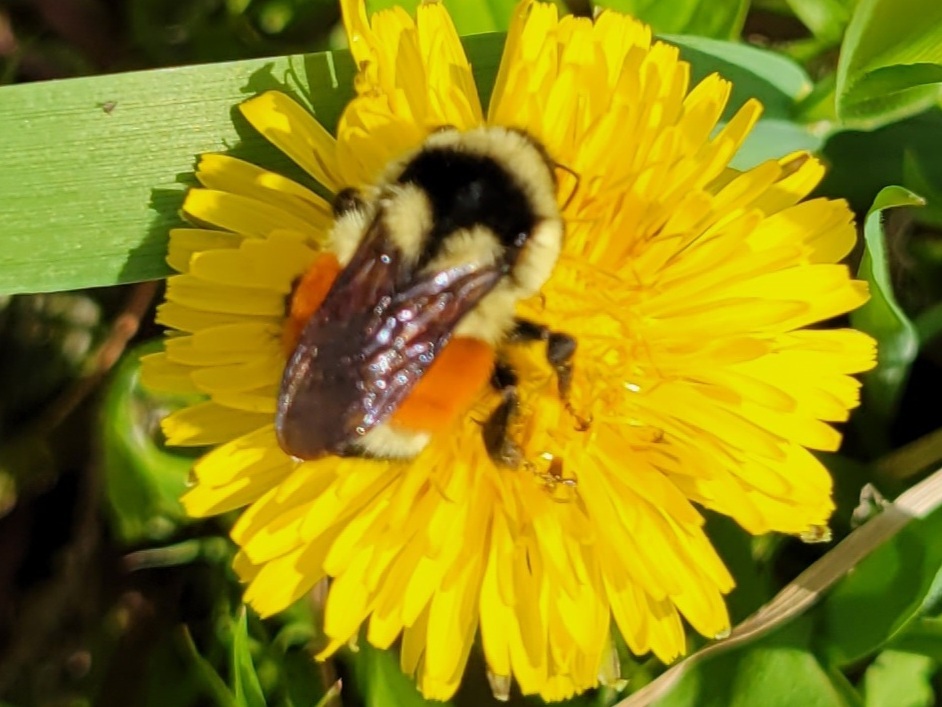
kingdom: Animalia
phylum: Arthropoda
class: Insecta
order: Hymenoptera
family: Apidae
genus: Bombus
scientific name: Bombus ternarius
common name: Tri-colored bumble bee
